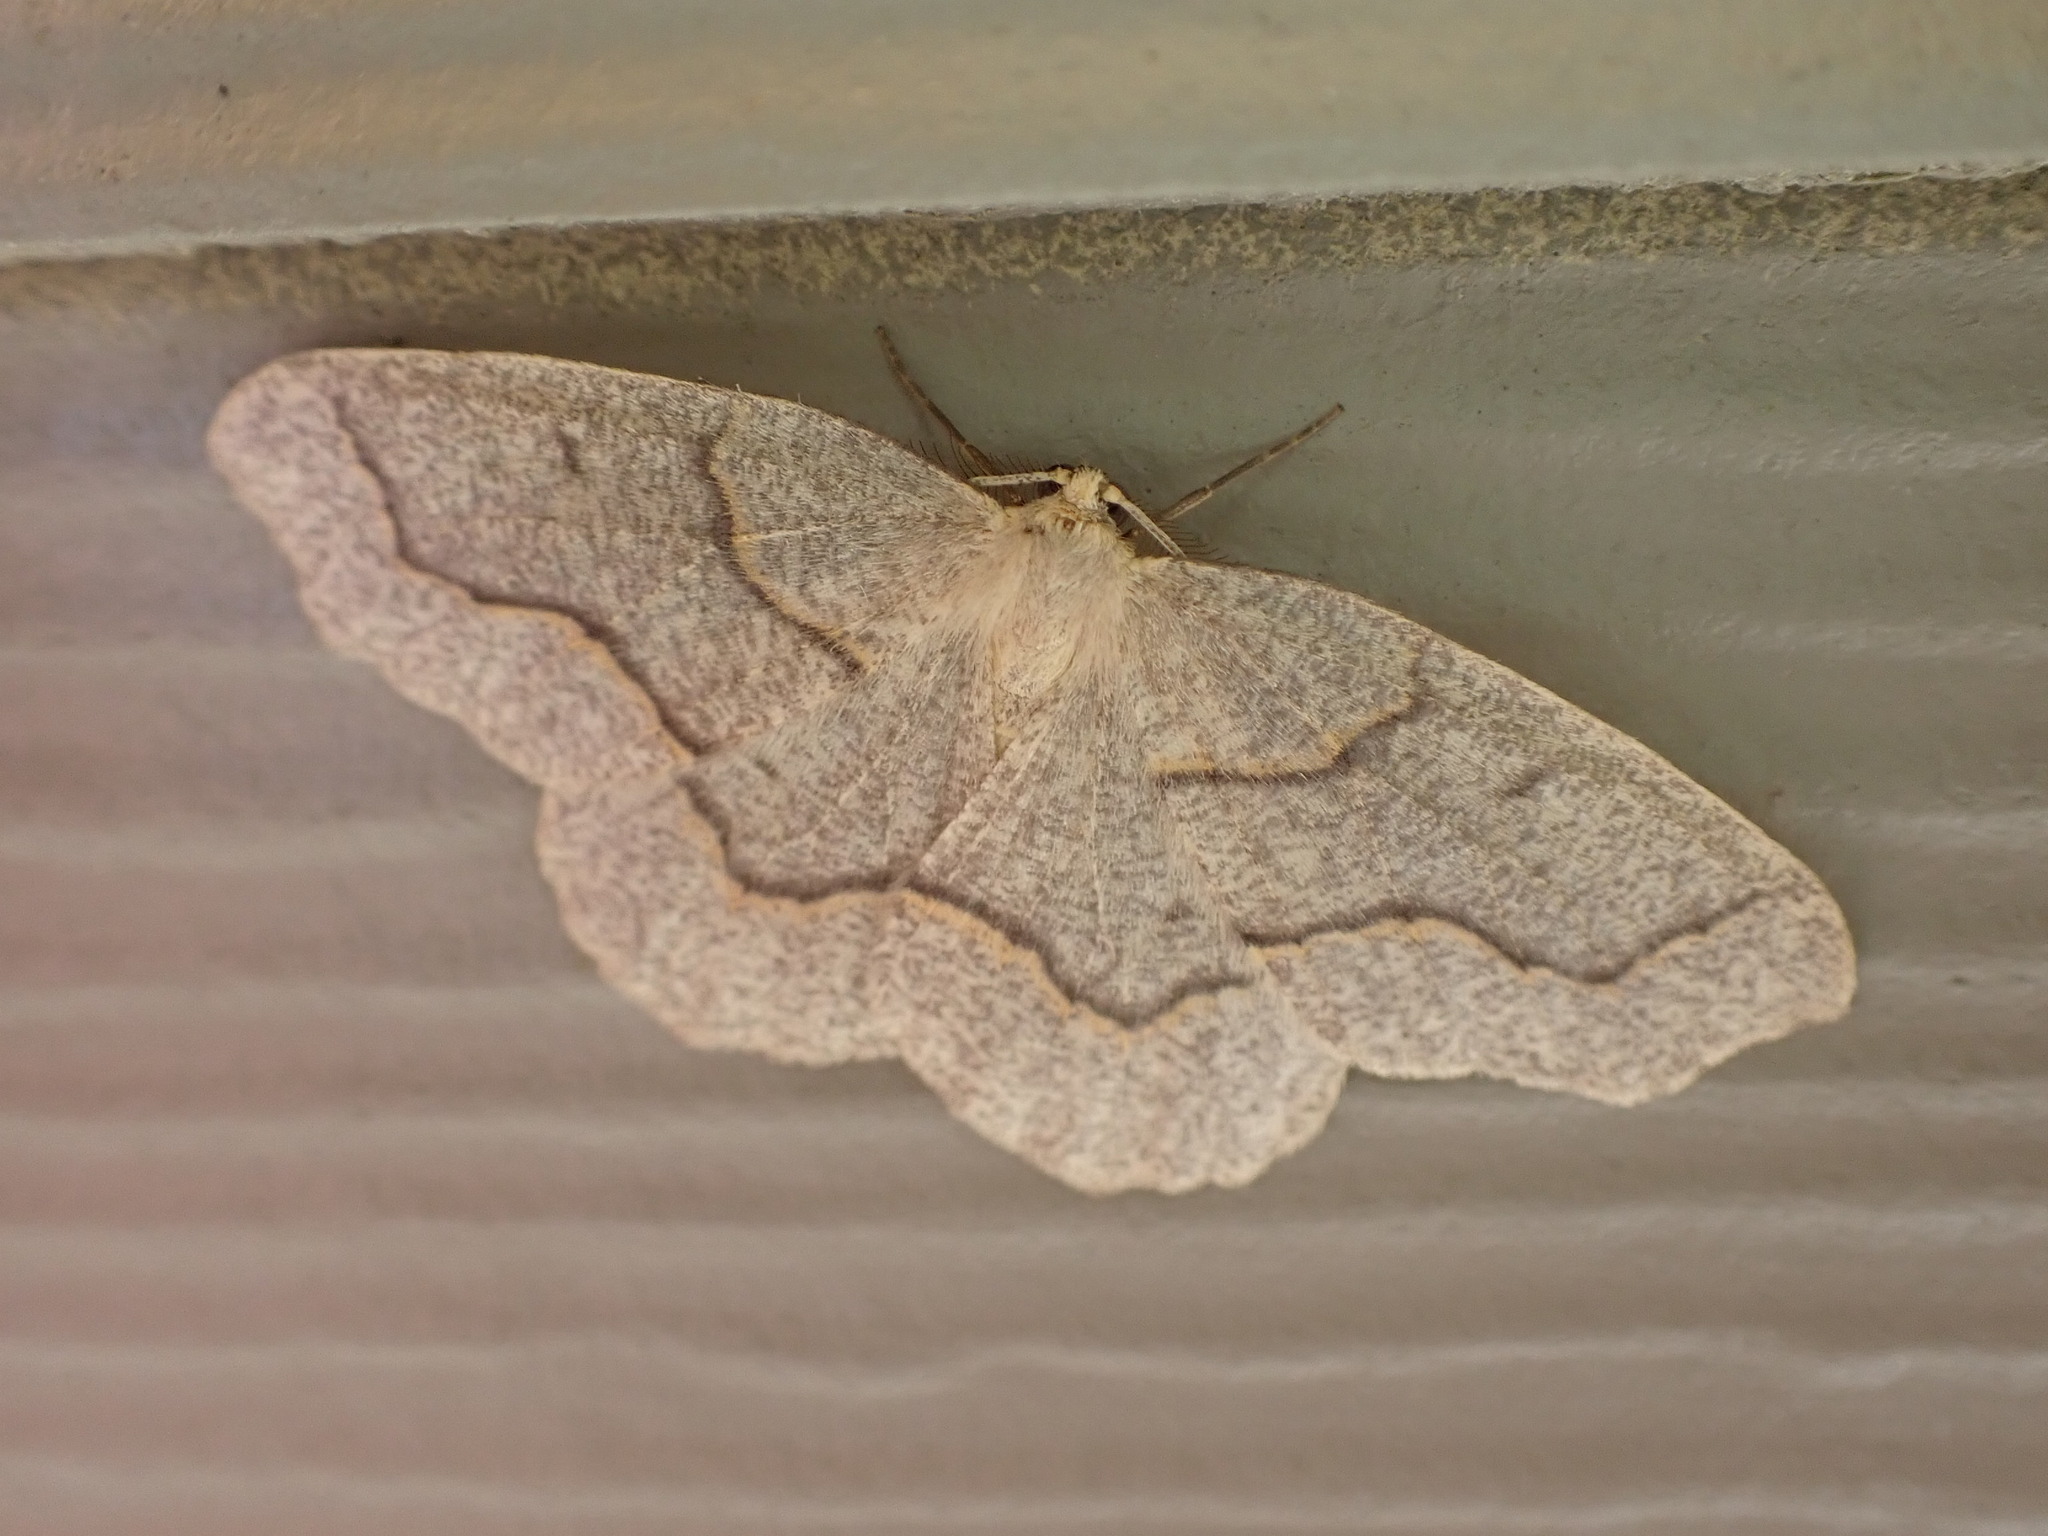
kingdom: Animalia
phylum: Arthropoda
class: Insecta
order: Lepidoptera
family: Geometridae
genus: Lambdina
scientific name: Lambdina fiscellaria
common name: Hemlock looper
